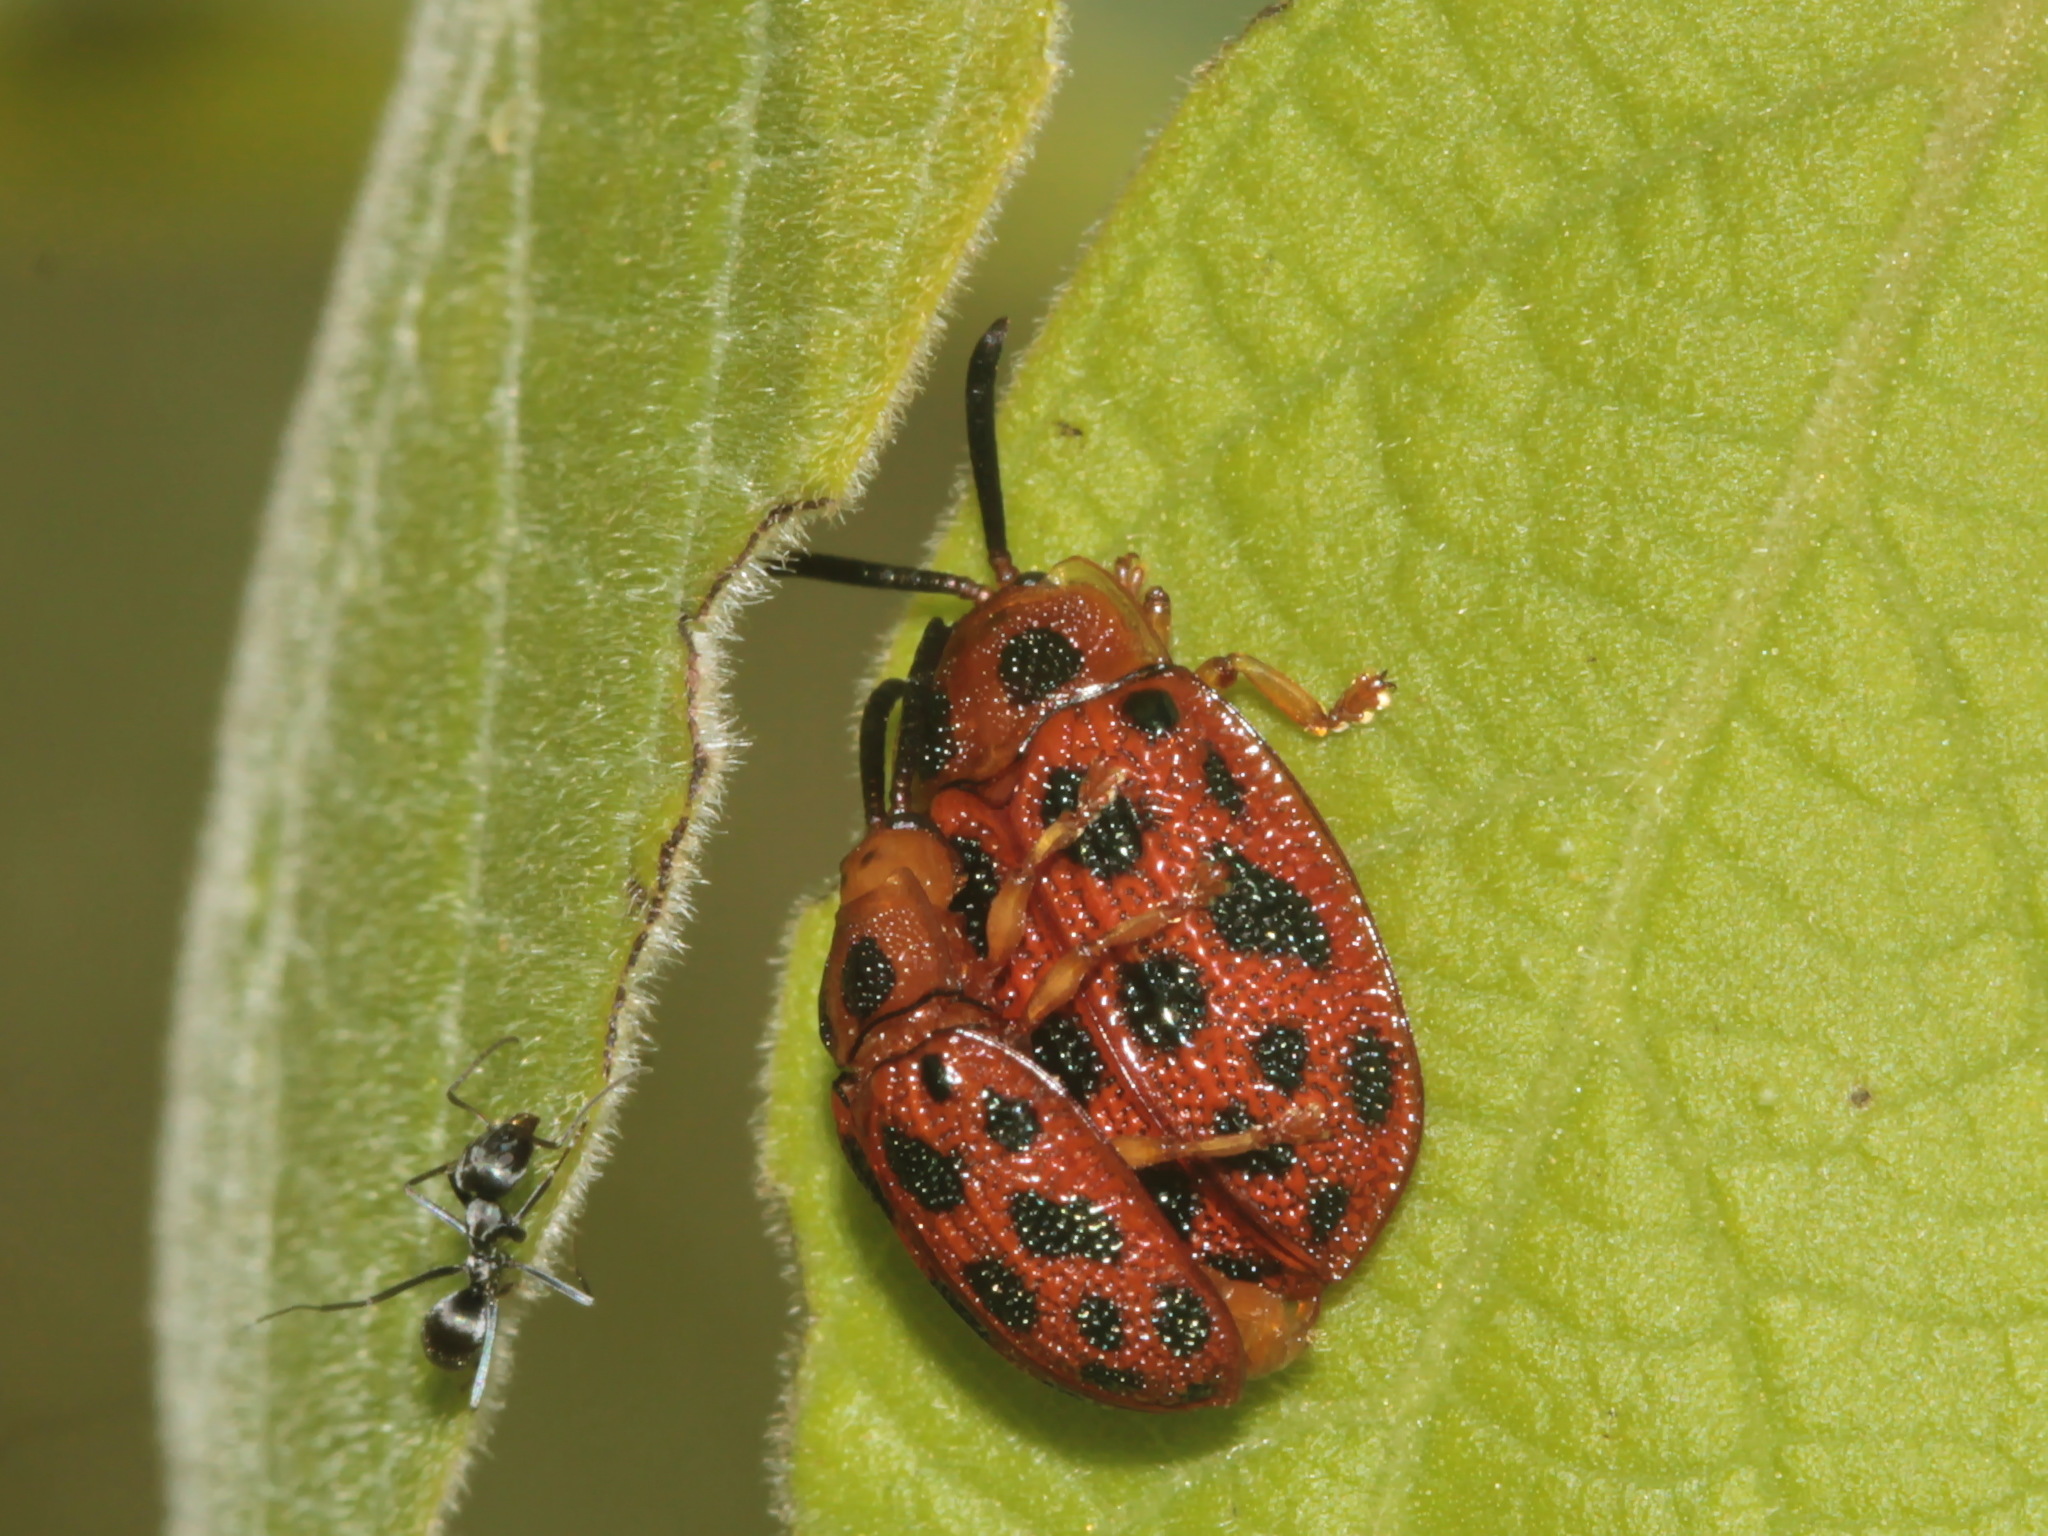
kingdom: Animalia
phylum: Arthropoda
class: Insecta
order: Coleoptera
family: Chrysomelidae
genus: Epistictina
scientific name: Epistictina viridimaculata
